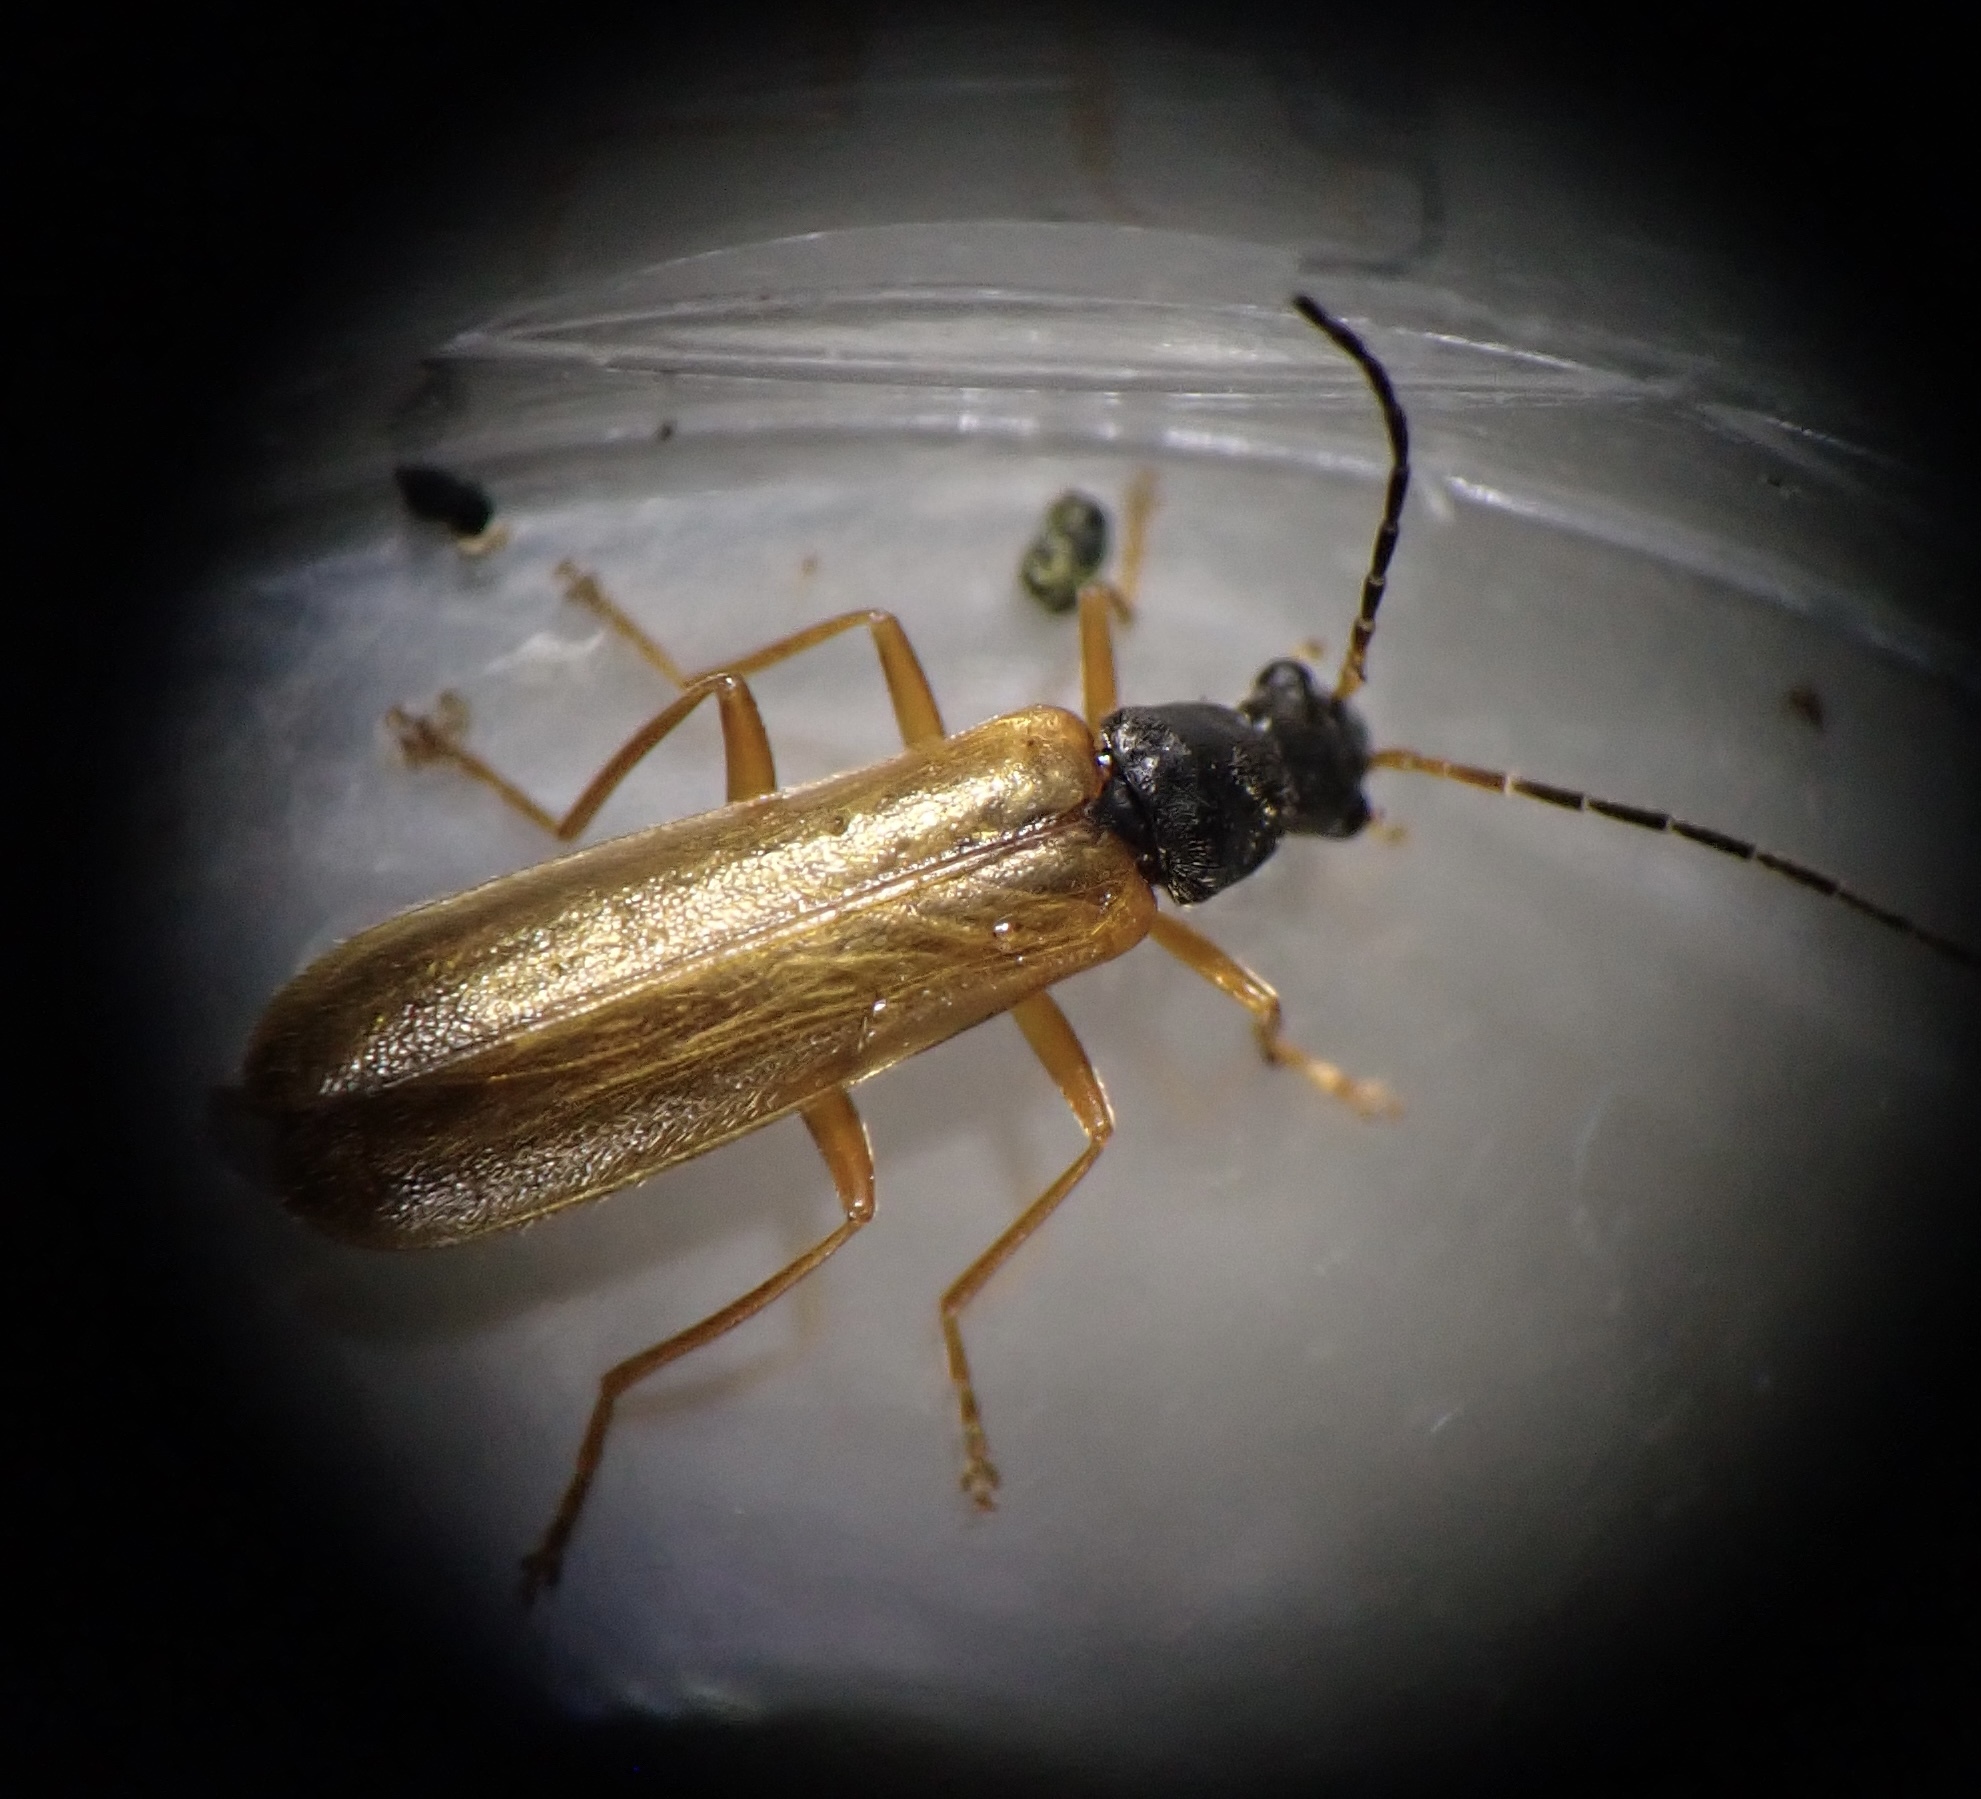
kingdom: Animalia
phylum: Arthropoda
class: Insecta
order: Coleoptera
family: Cantharidae
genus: Rhagonycha
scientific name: Rhagonycha lignosa
